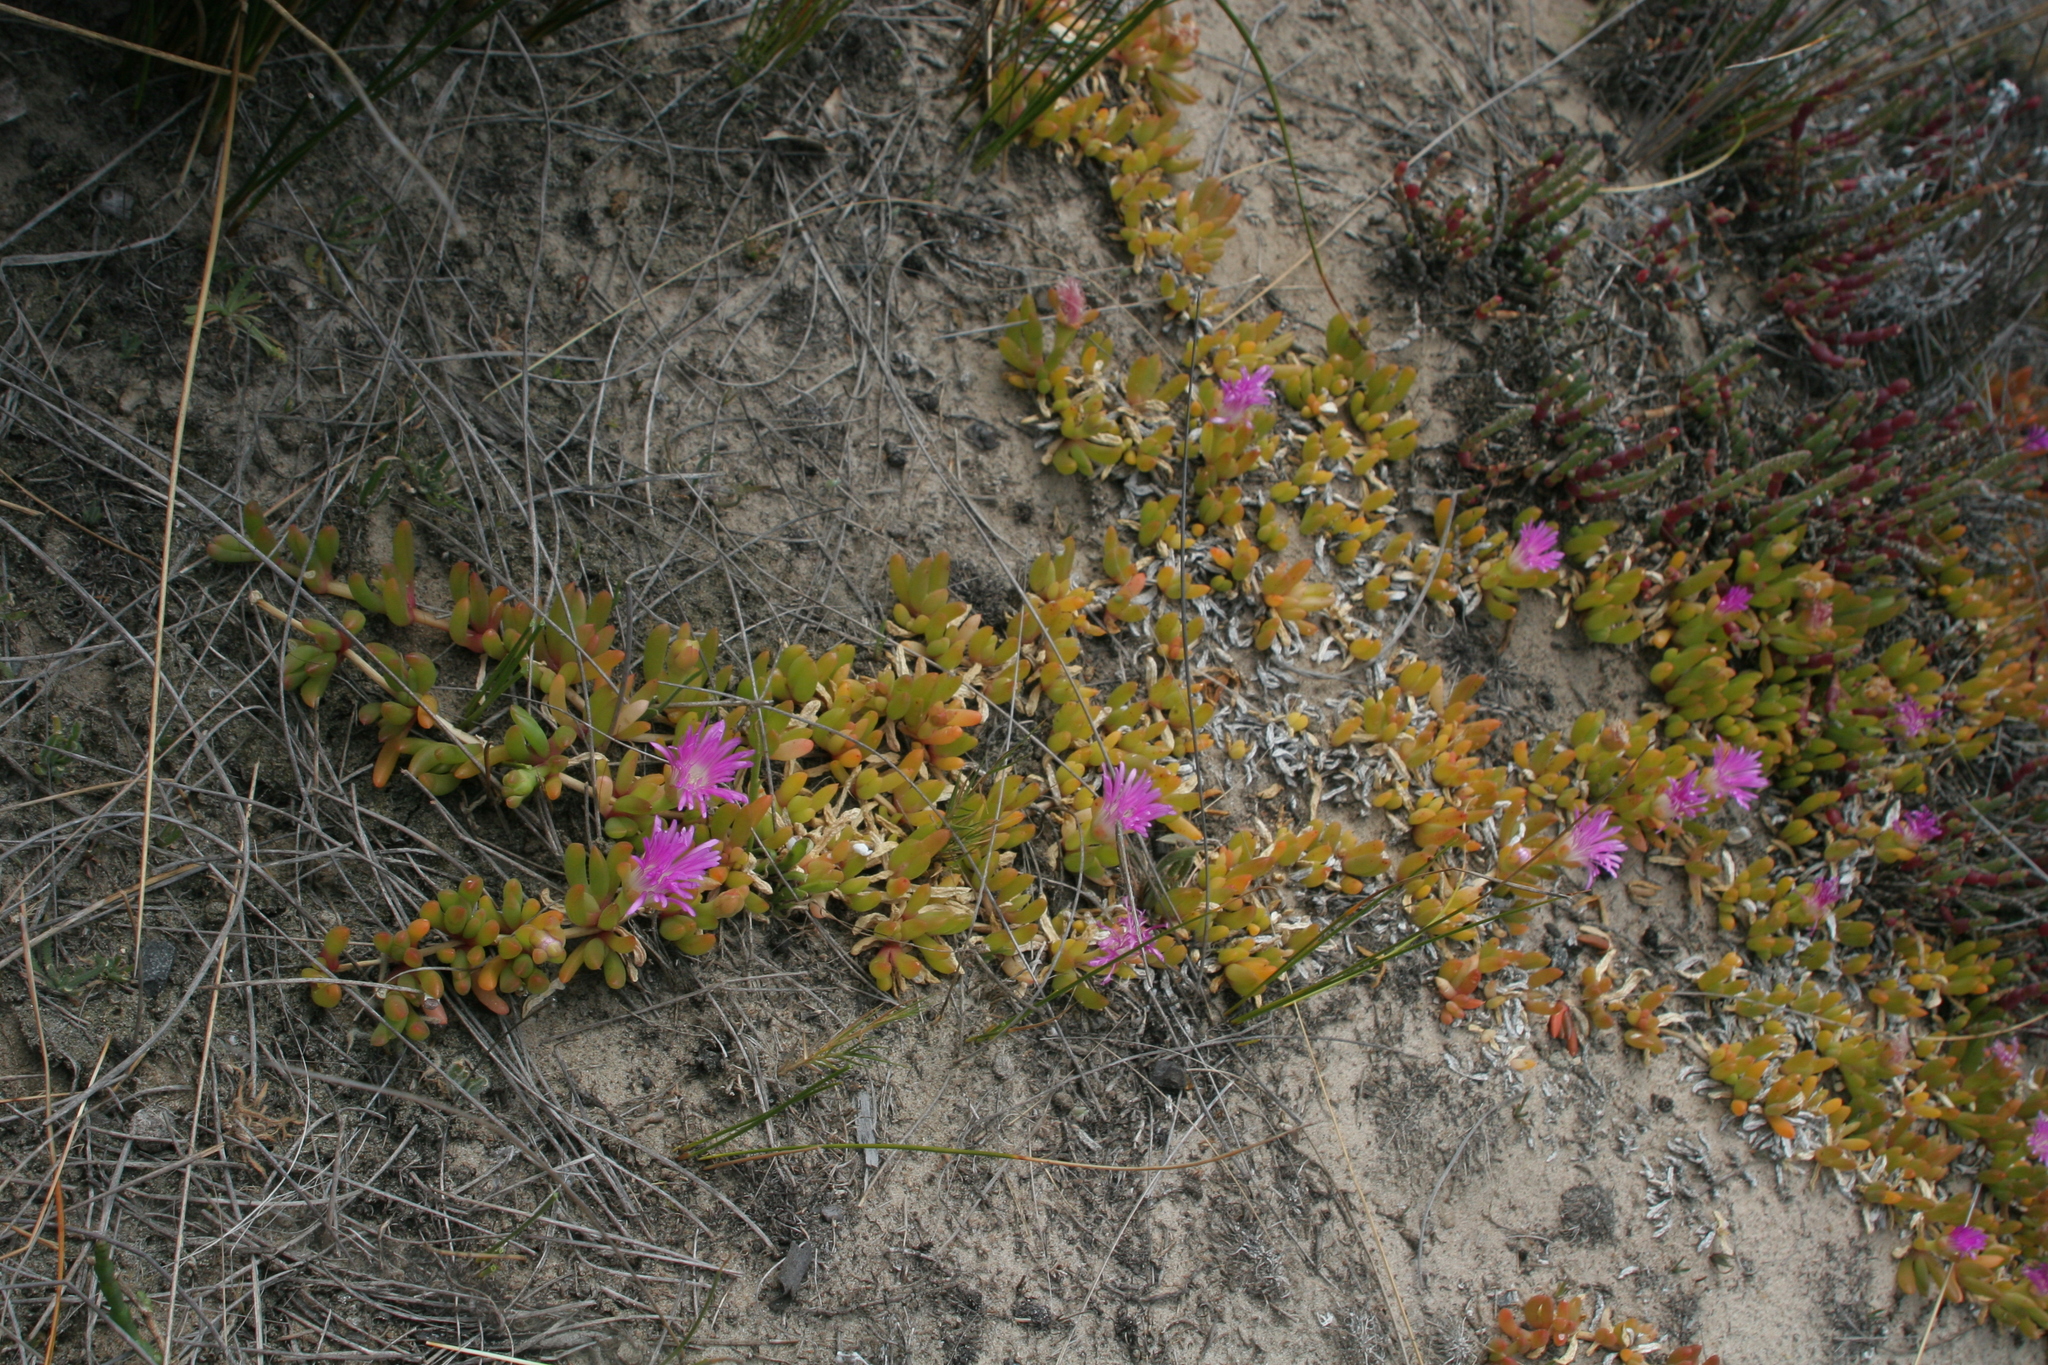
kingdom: Plantae
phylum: Tracheophyta
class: Magnoliopsida
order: Caryophyllales
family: Aizoaceae
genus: Disphyma
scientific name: Disphyma clavellatum
